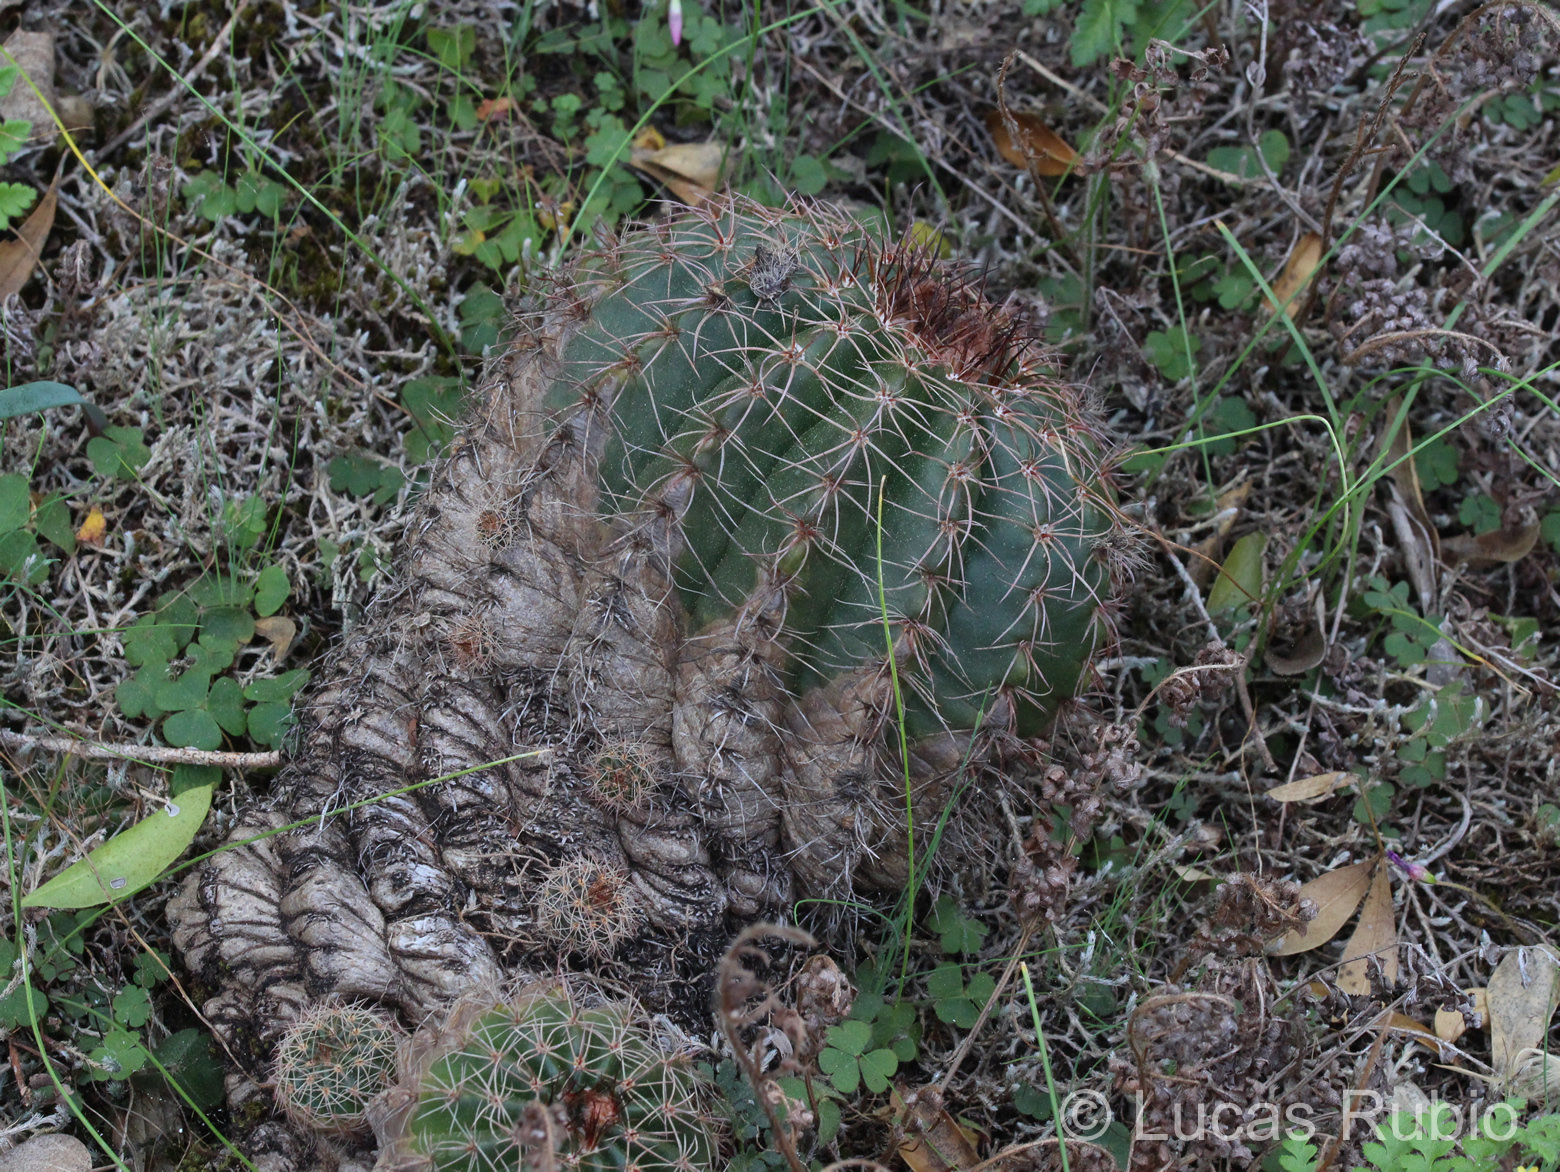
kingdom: Plantae
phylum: Tracheophyta
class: Magnoliopsida
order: Caryophyllales
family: Cactaceae
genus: Parodia
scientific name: Parodia linkii
